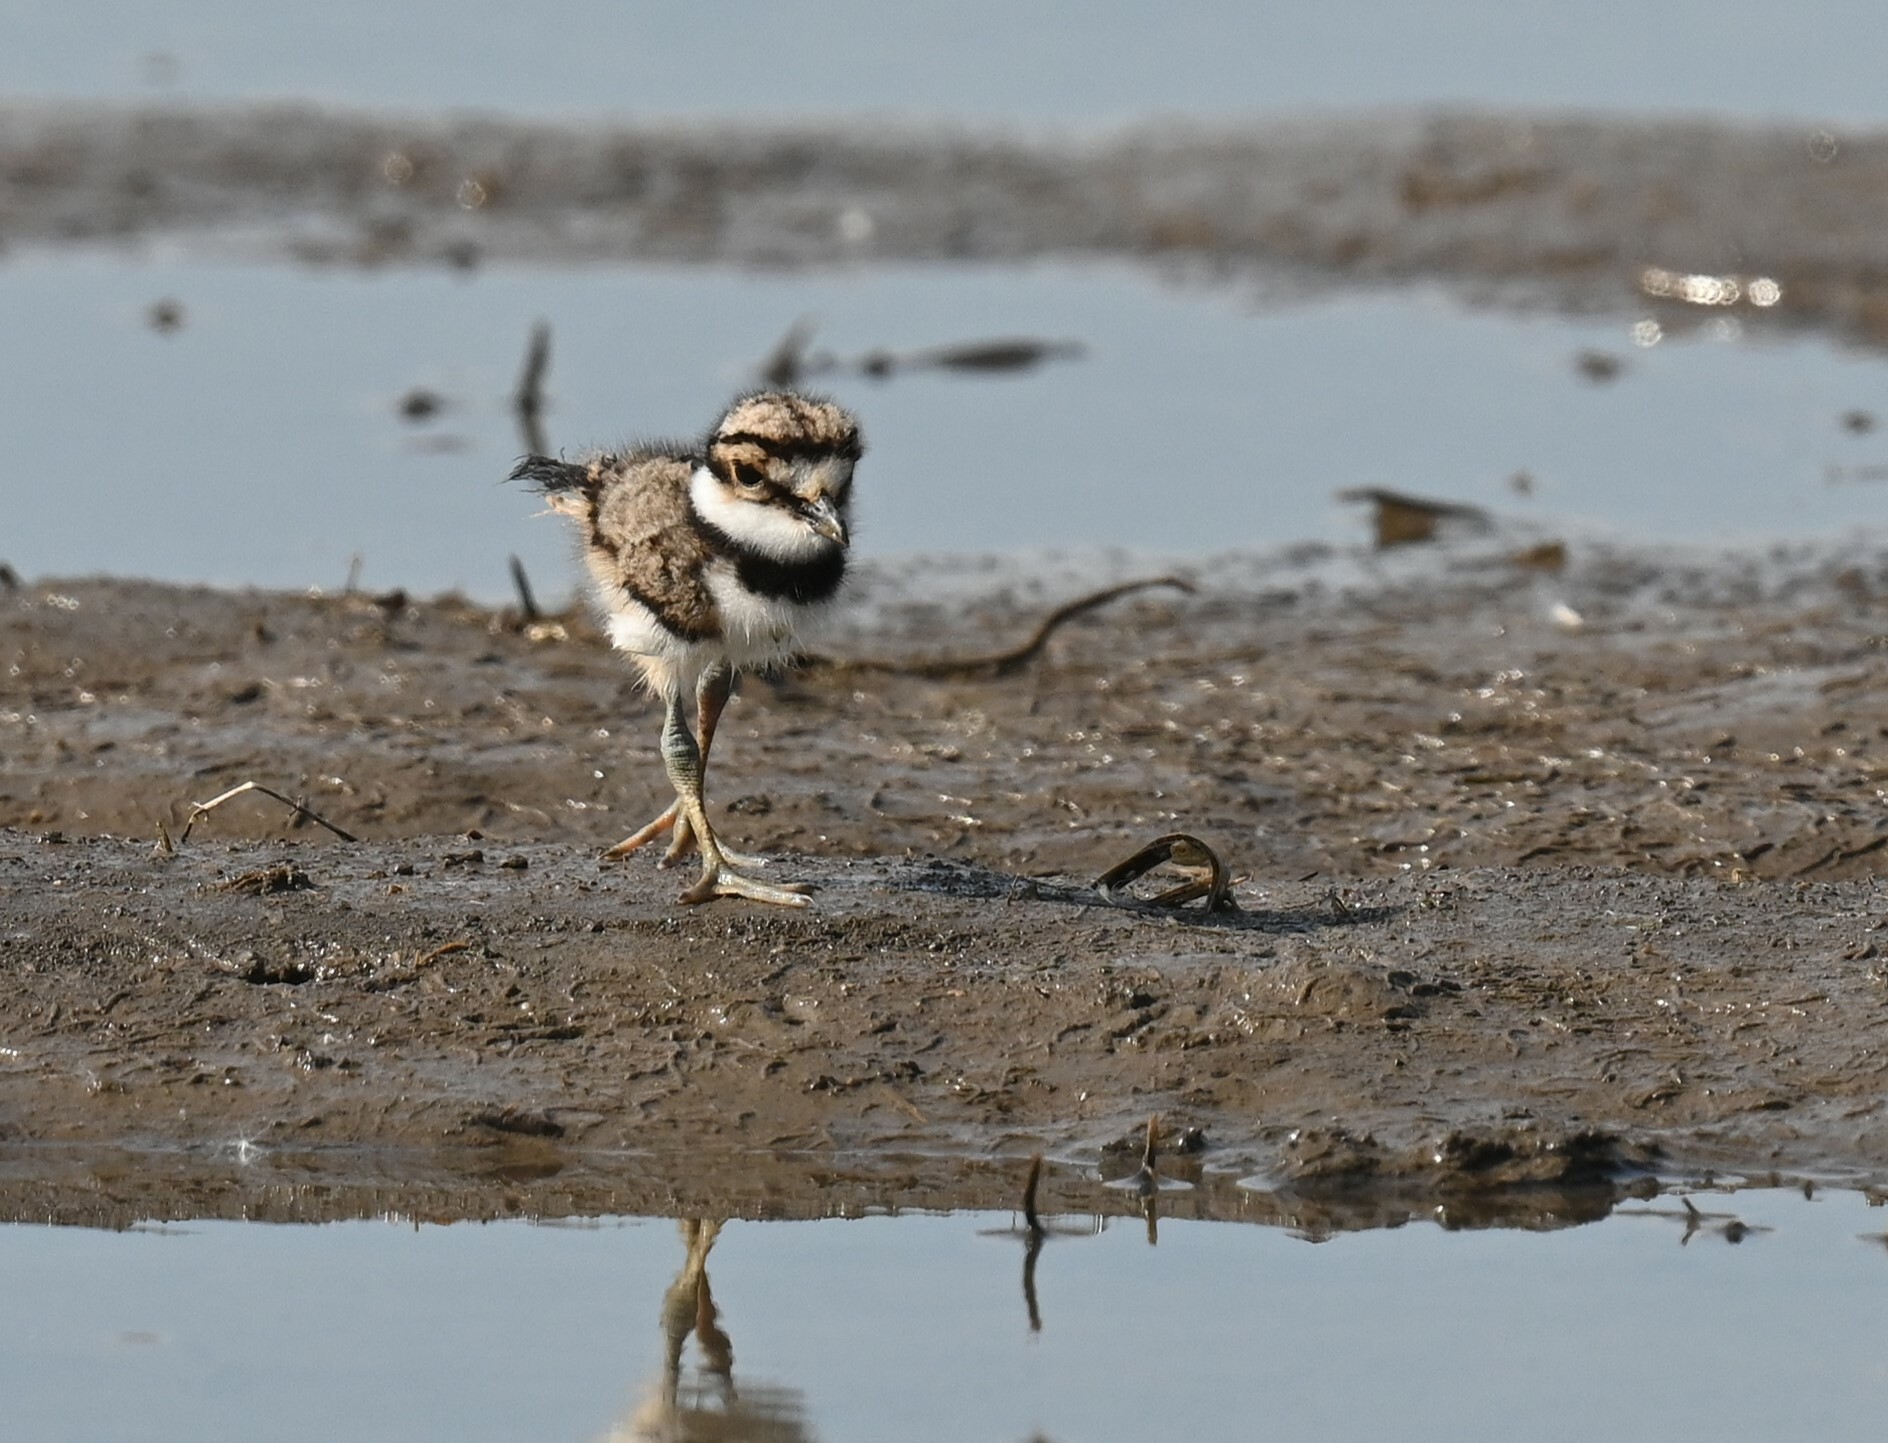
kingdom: Animalia
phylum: Chordata
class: Aves
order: Charadriiformes
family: Charadriidae
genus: Charadrius
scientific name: Charadrius vociferus
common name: Killdeer
